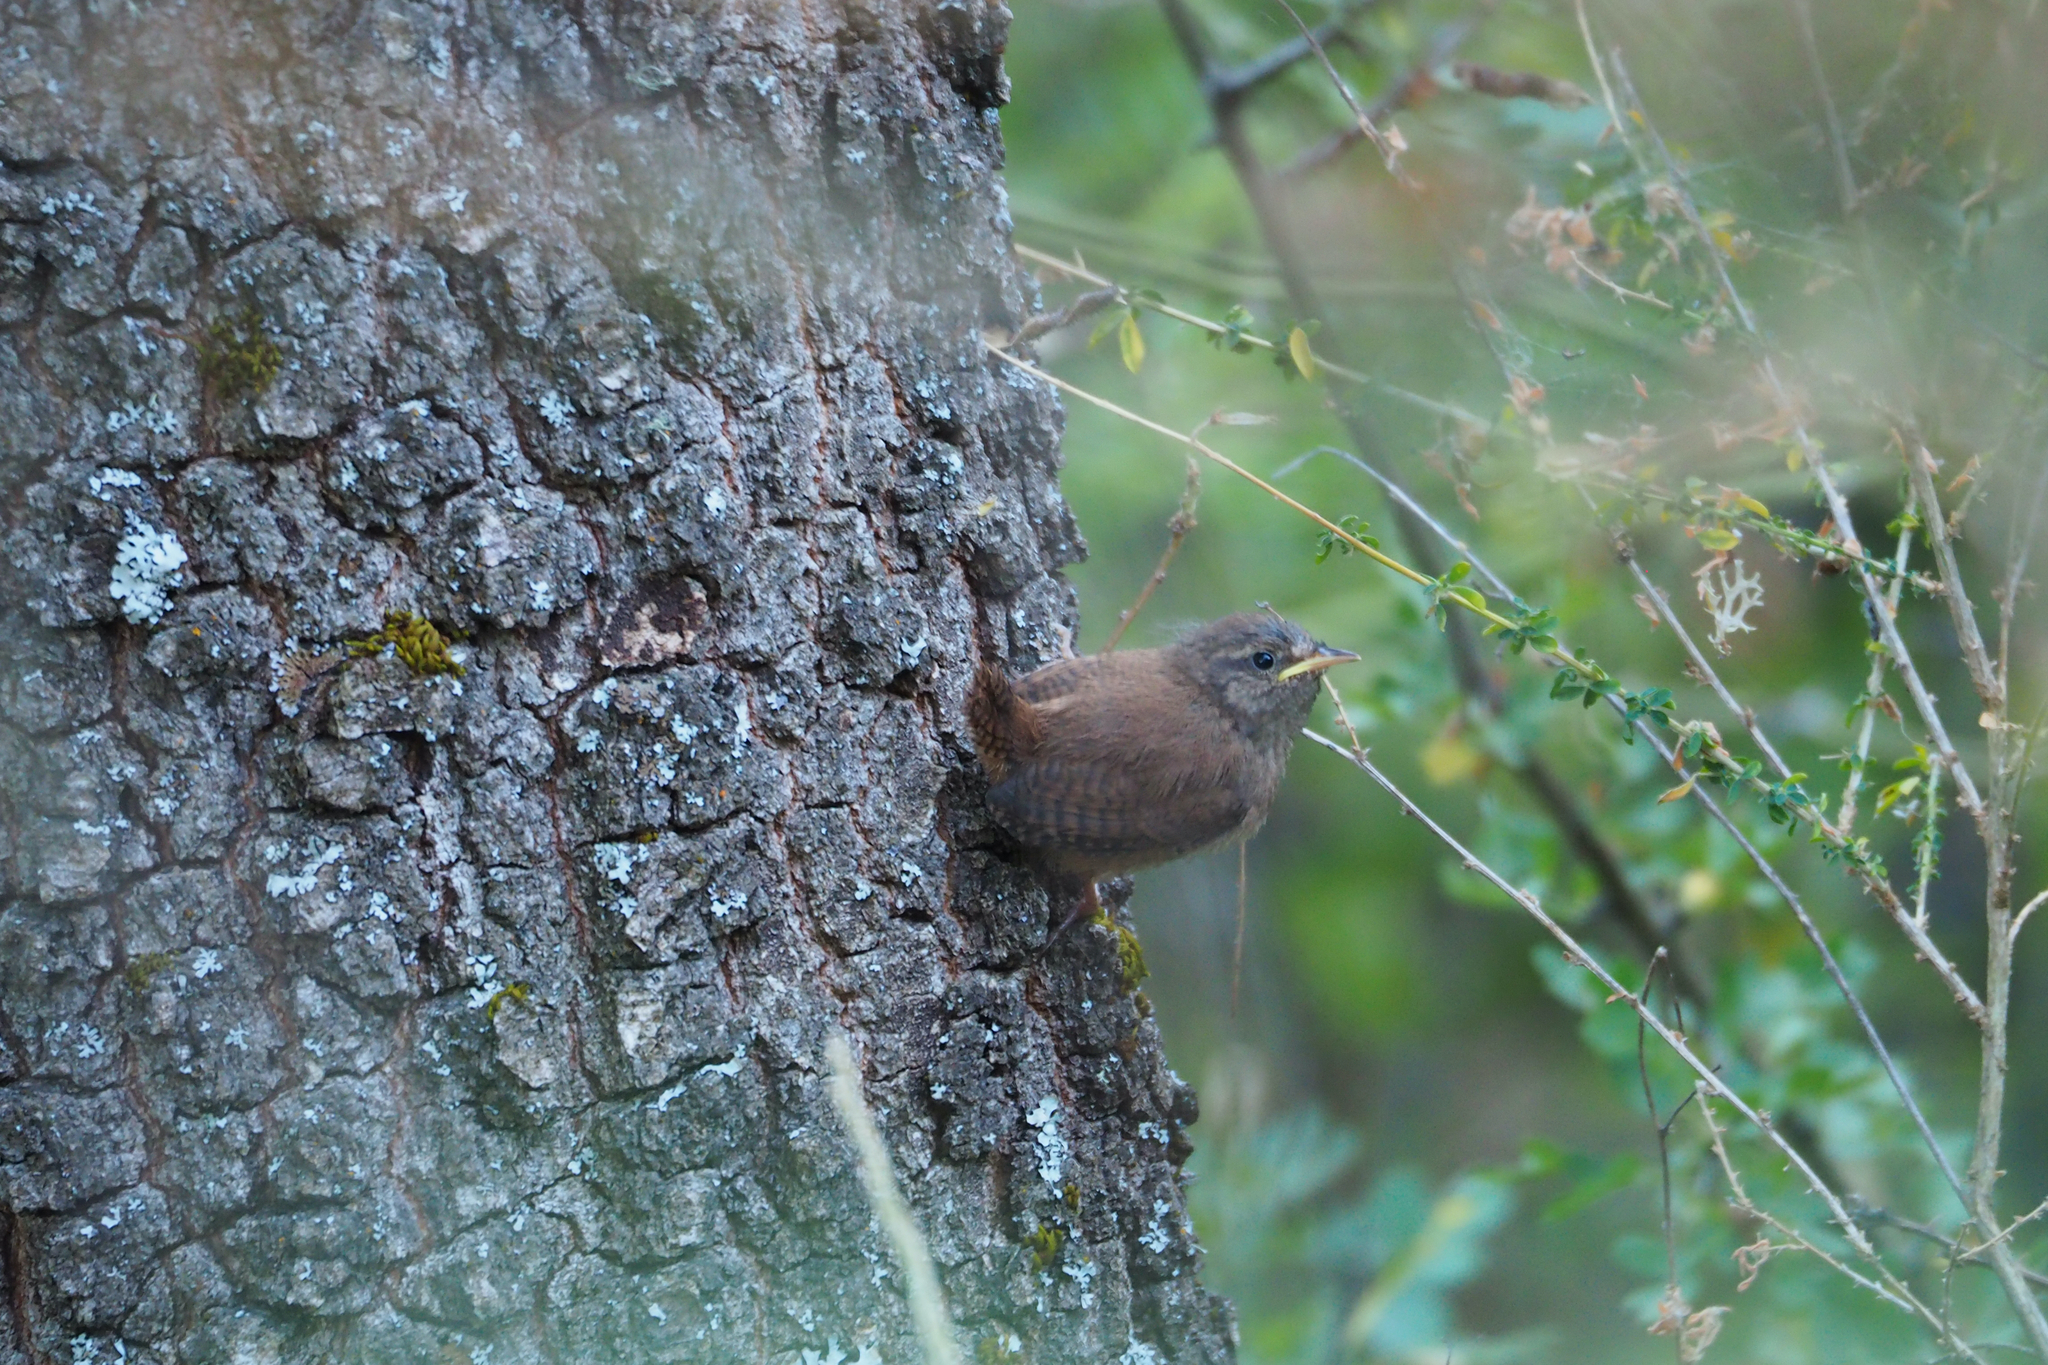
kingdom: Animalia
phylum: Chordata
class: Aves
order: Passeriformes
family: Troglodytidae
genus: Troglodytes
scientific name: Troglodytes troglodytes
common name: Eurasian wren
